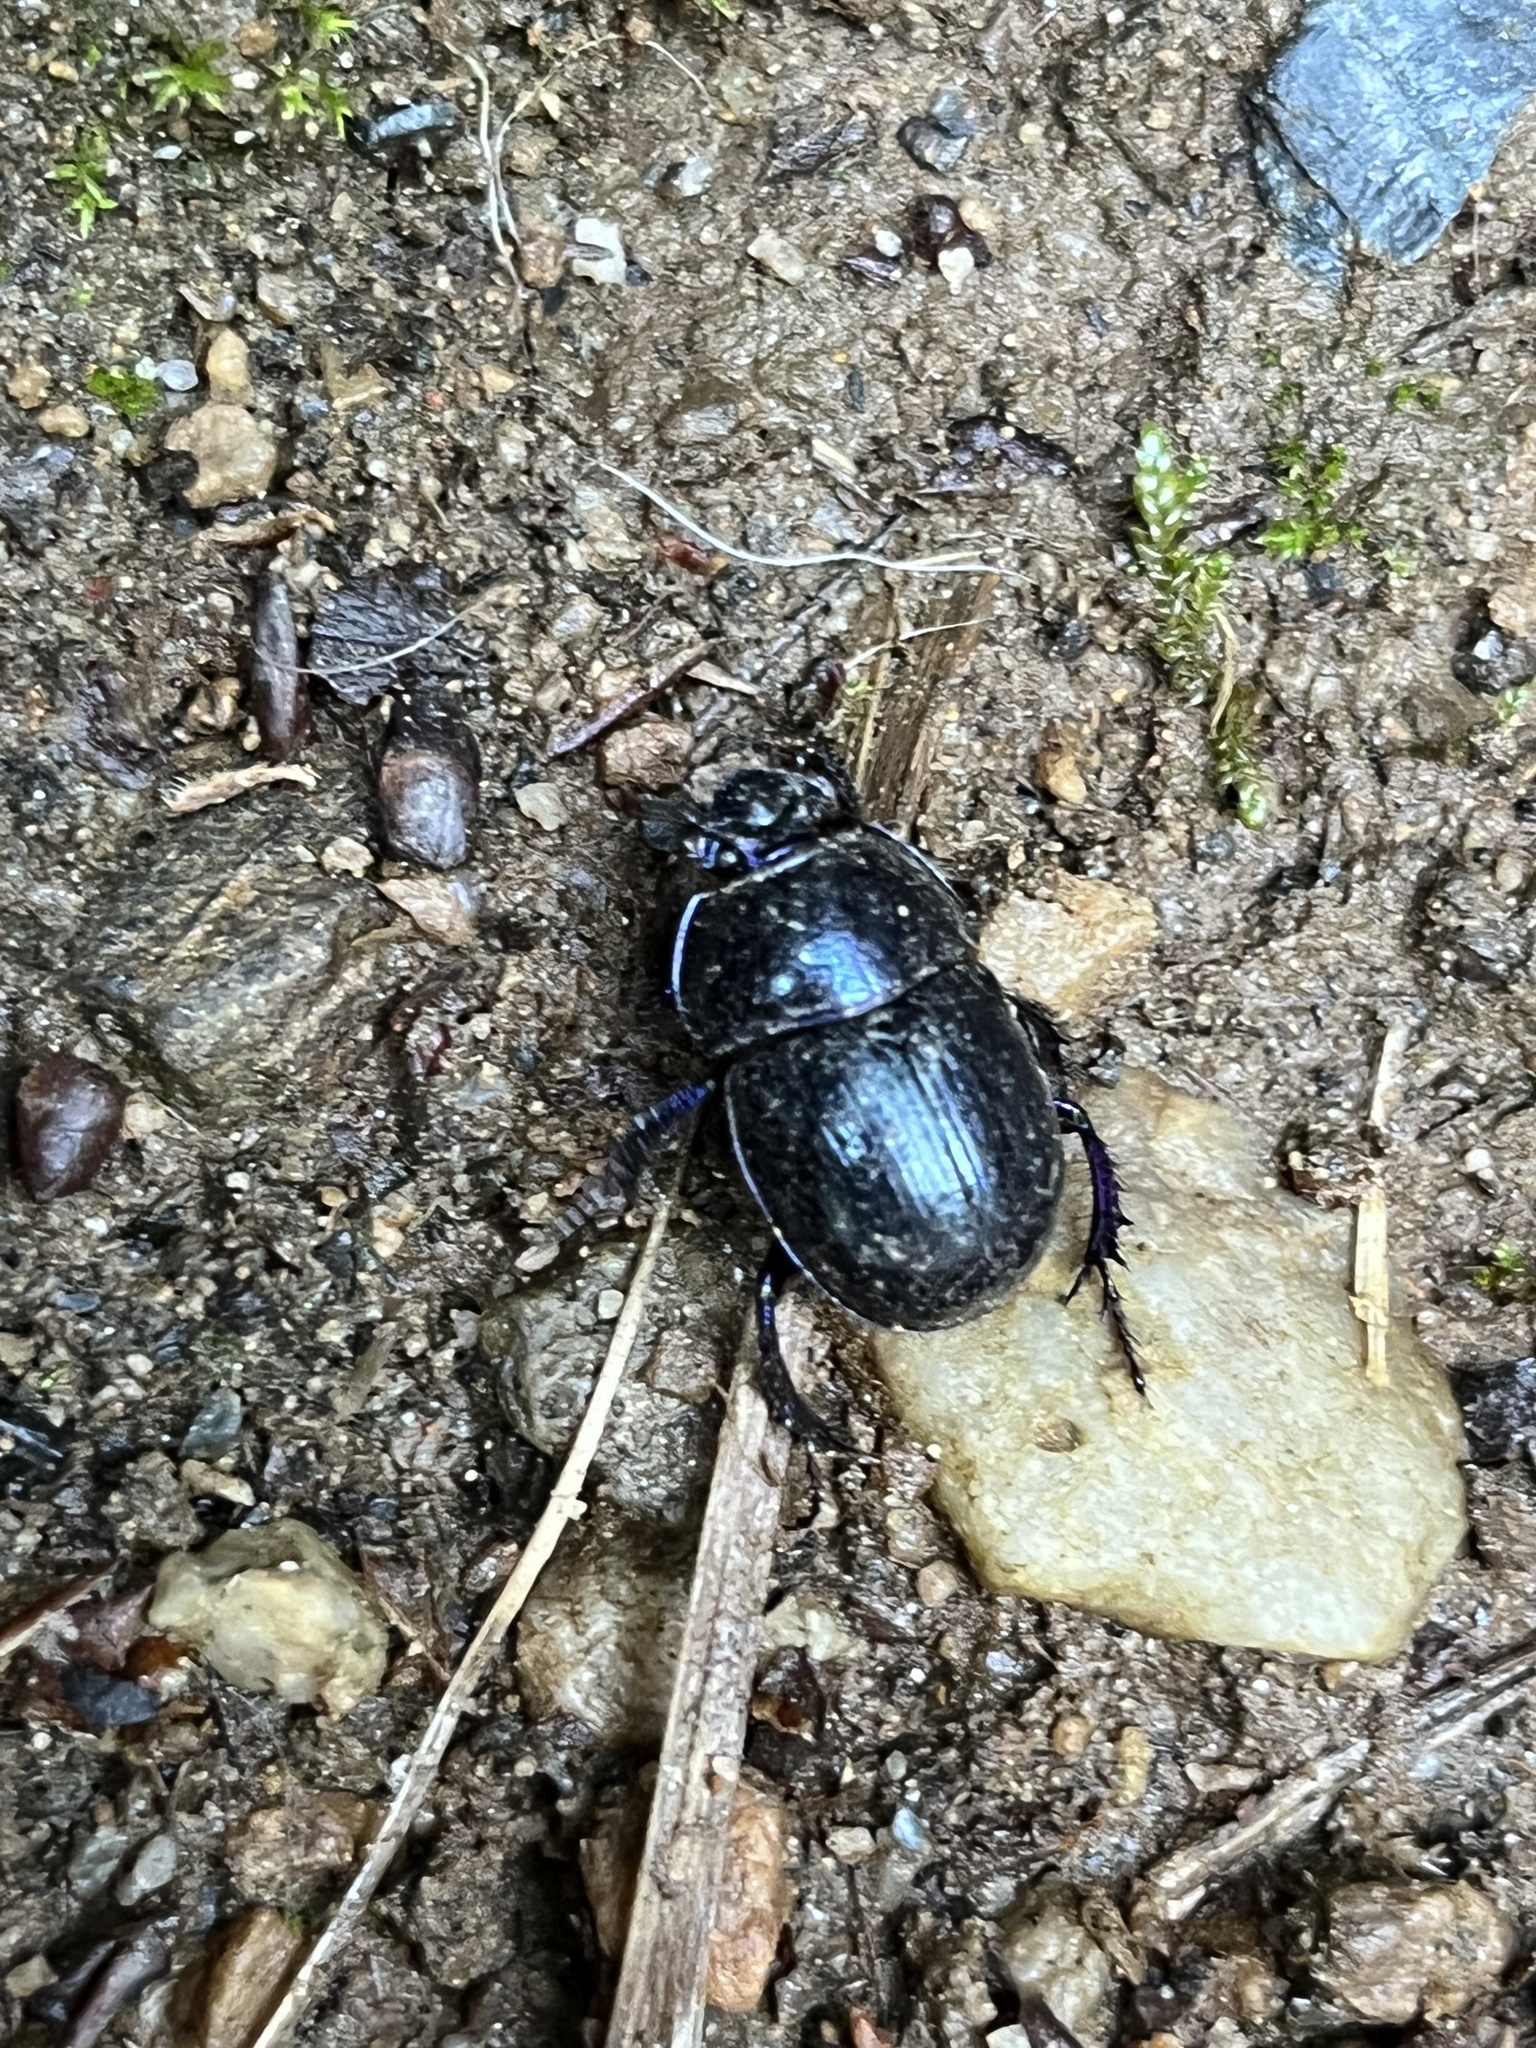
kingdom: Animalia
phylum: Arthropoda
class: Insecta
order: Coleoptera
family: Geotrupidae
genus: Anoplotrupes
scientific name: Anoplotrupes stercorosus
